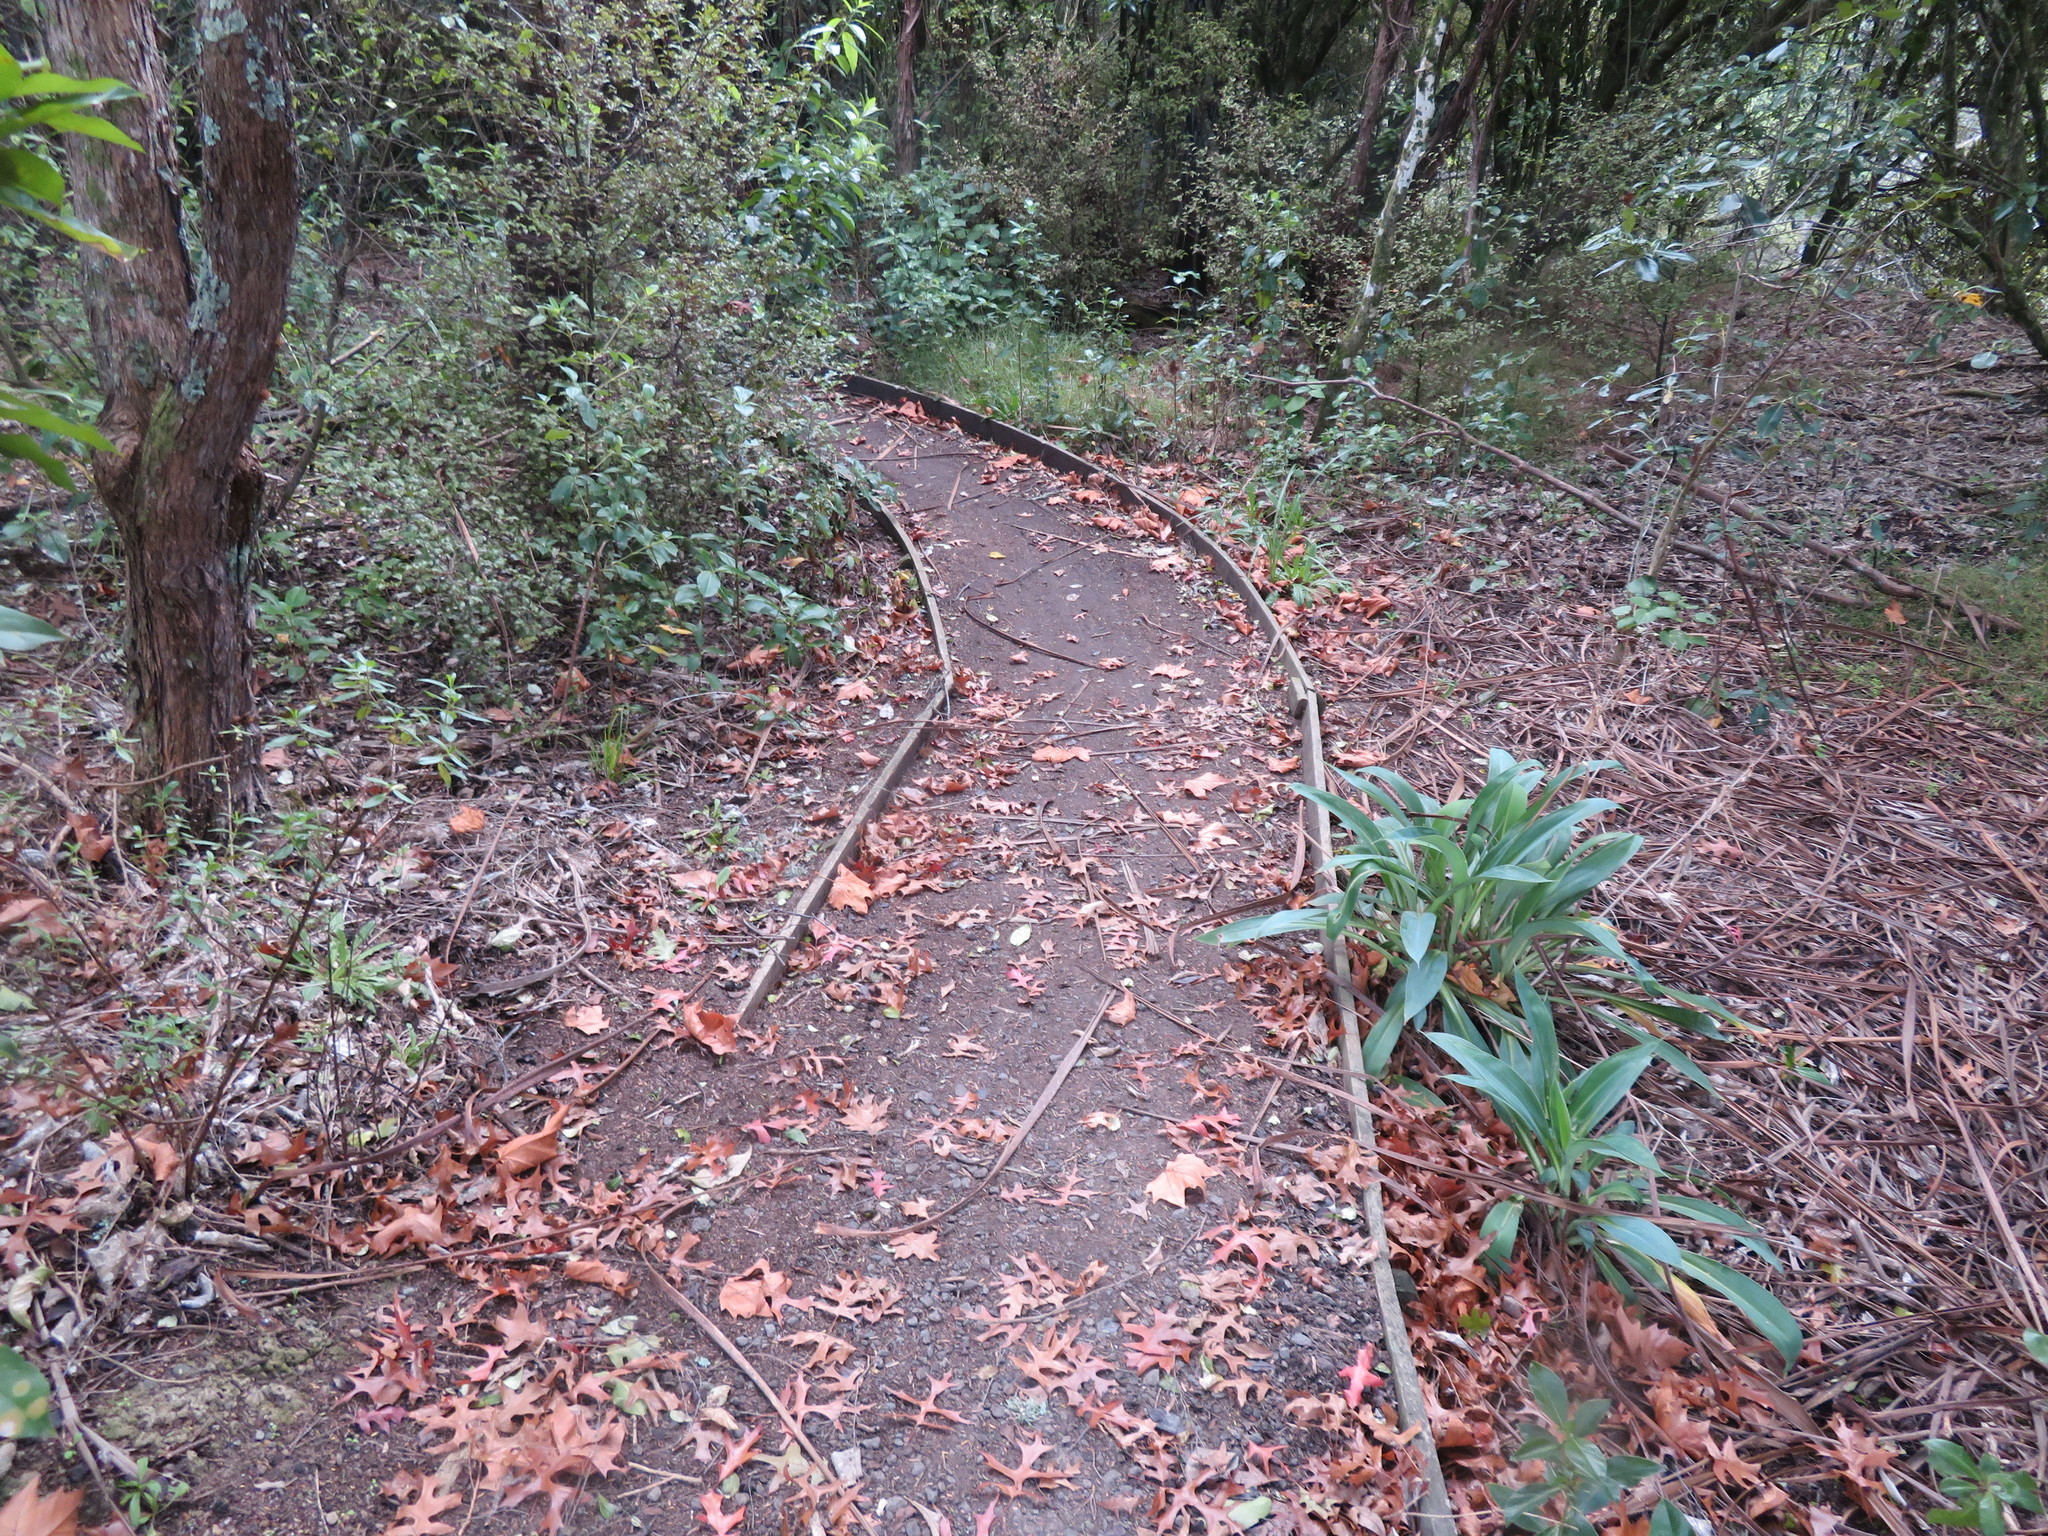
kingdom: Plantae
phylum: Tracheophyta
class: Magnoliopsida
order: Ericales
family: Primulaceae
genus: Myrsine
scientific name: Myrsine australis
